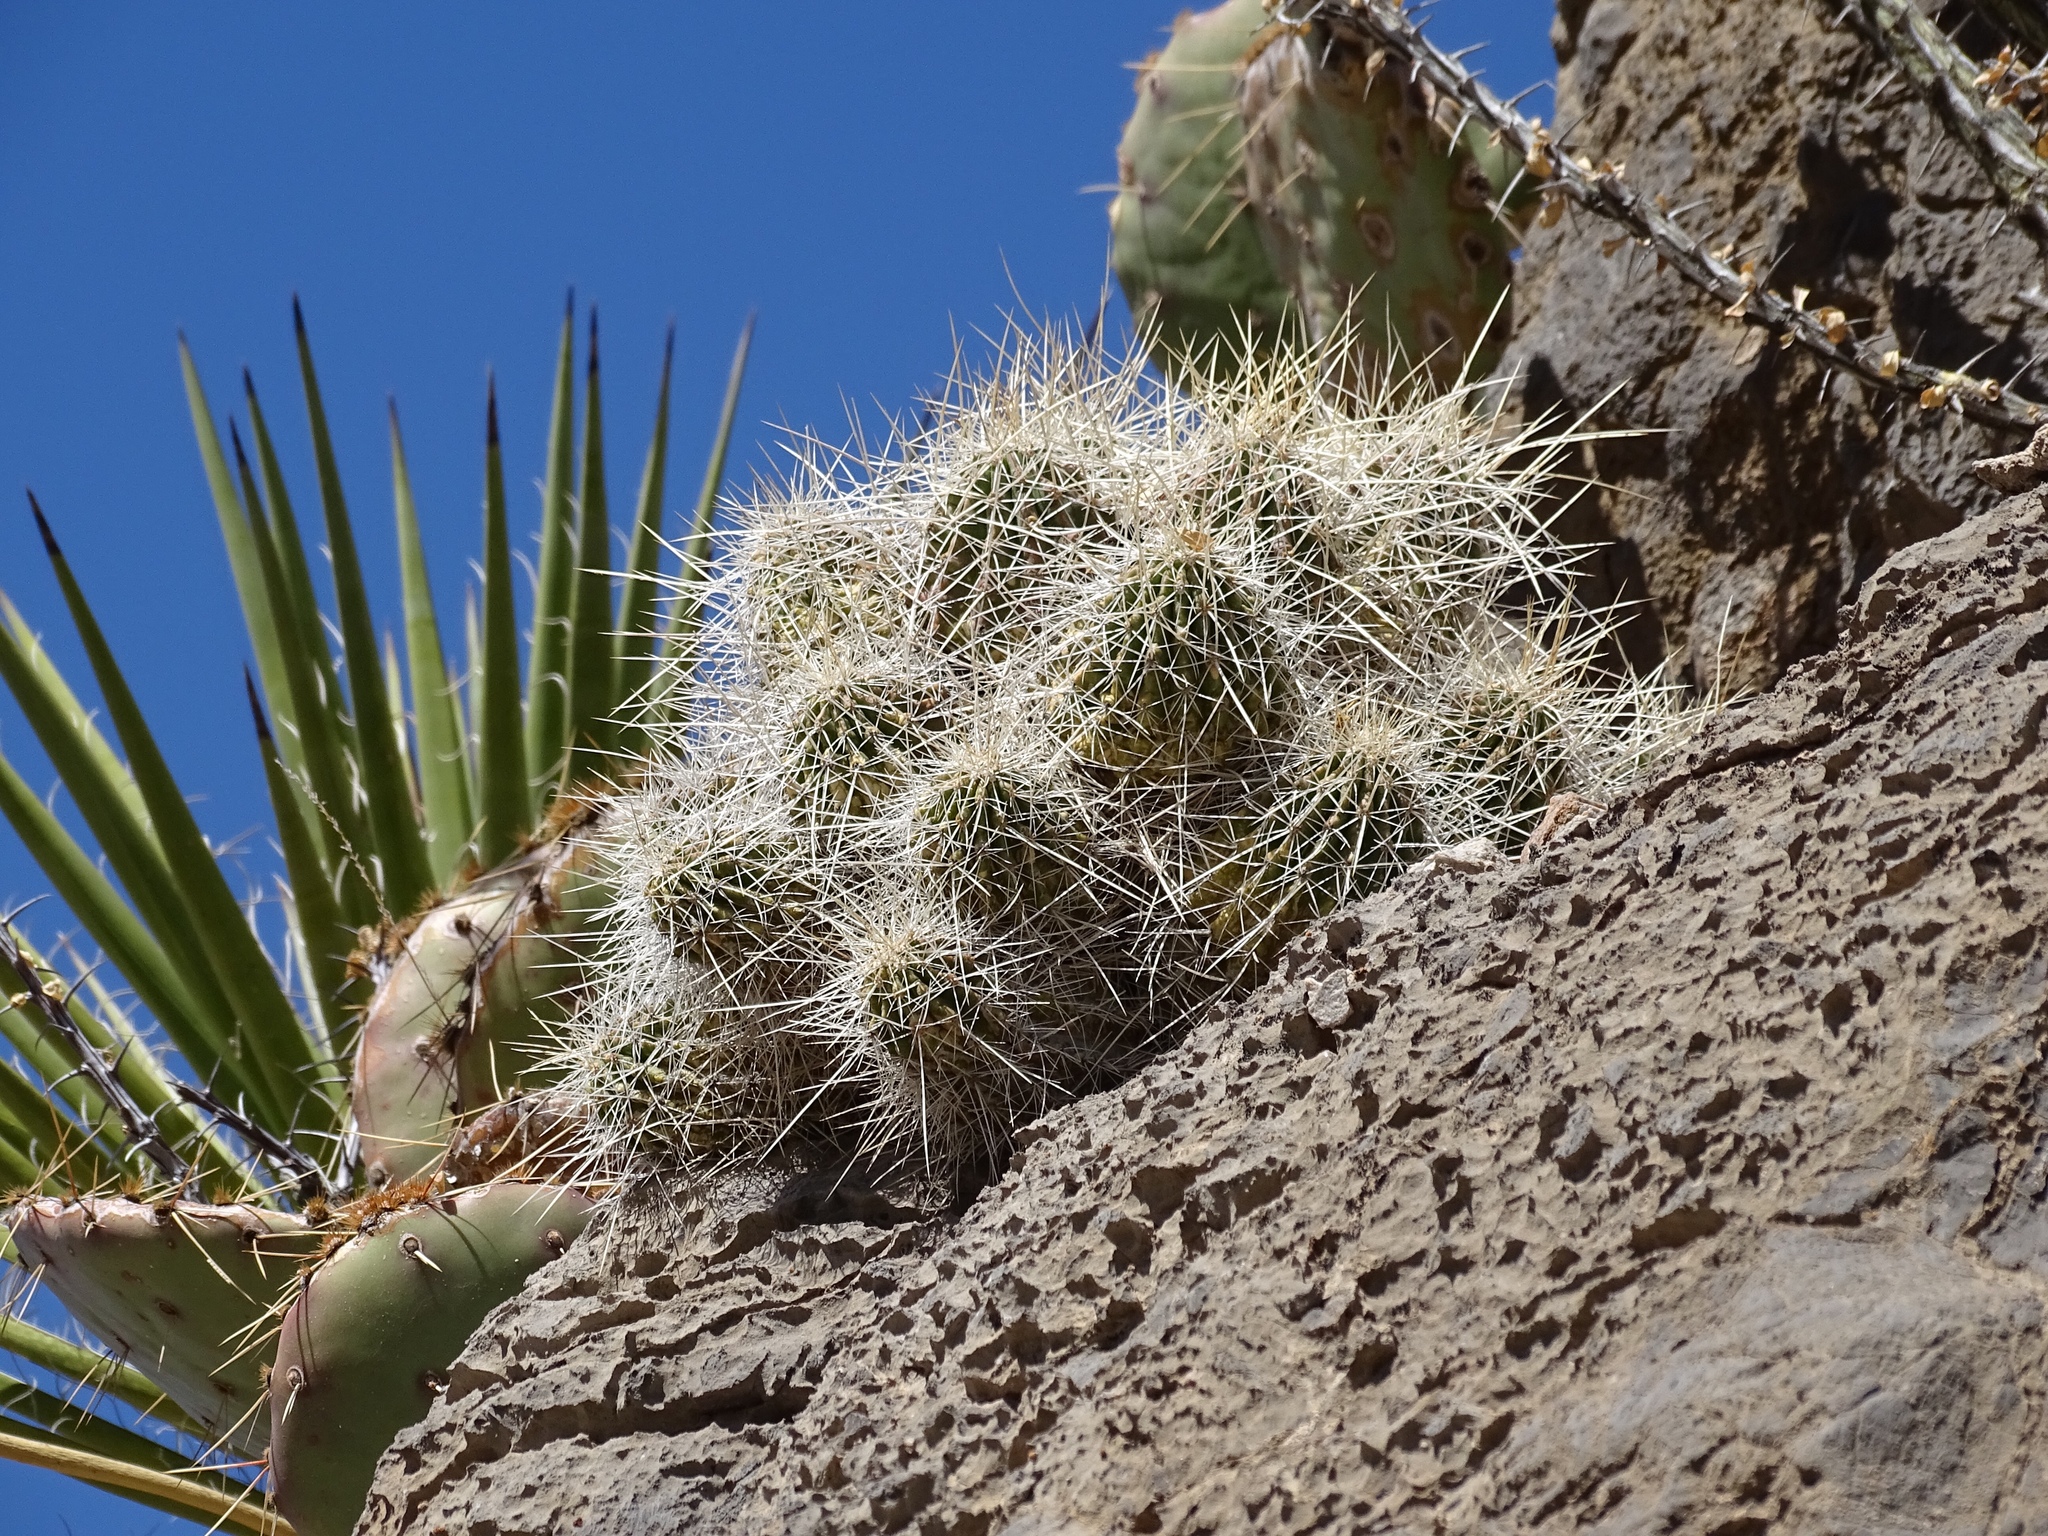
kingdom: Plantae
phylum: Tracheophyta
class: Magnoliopsida
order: Caryophyllales
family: Cactaceae
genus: Echinocereus
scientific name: Echinocereus stramineus
